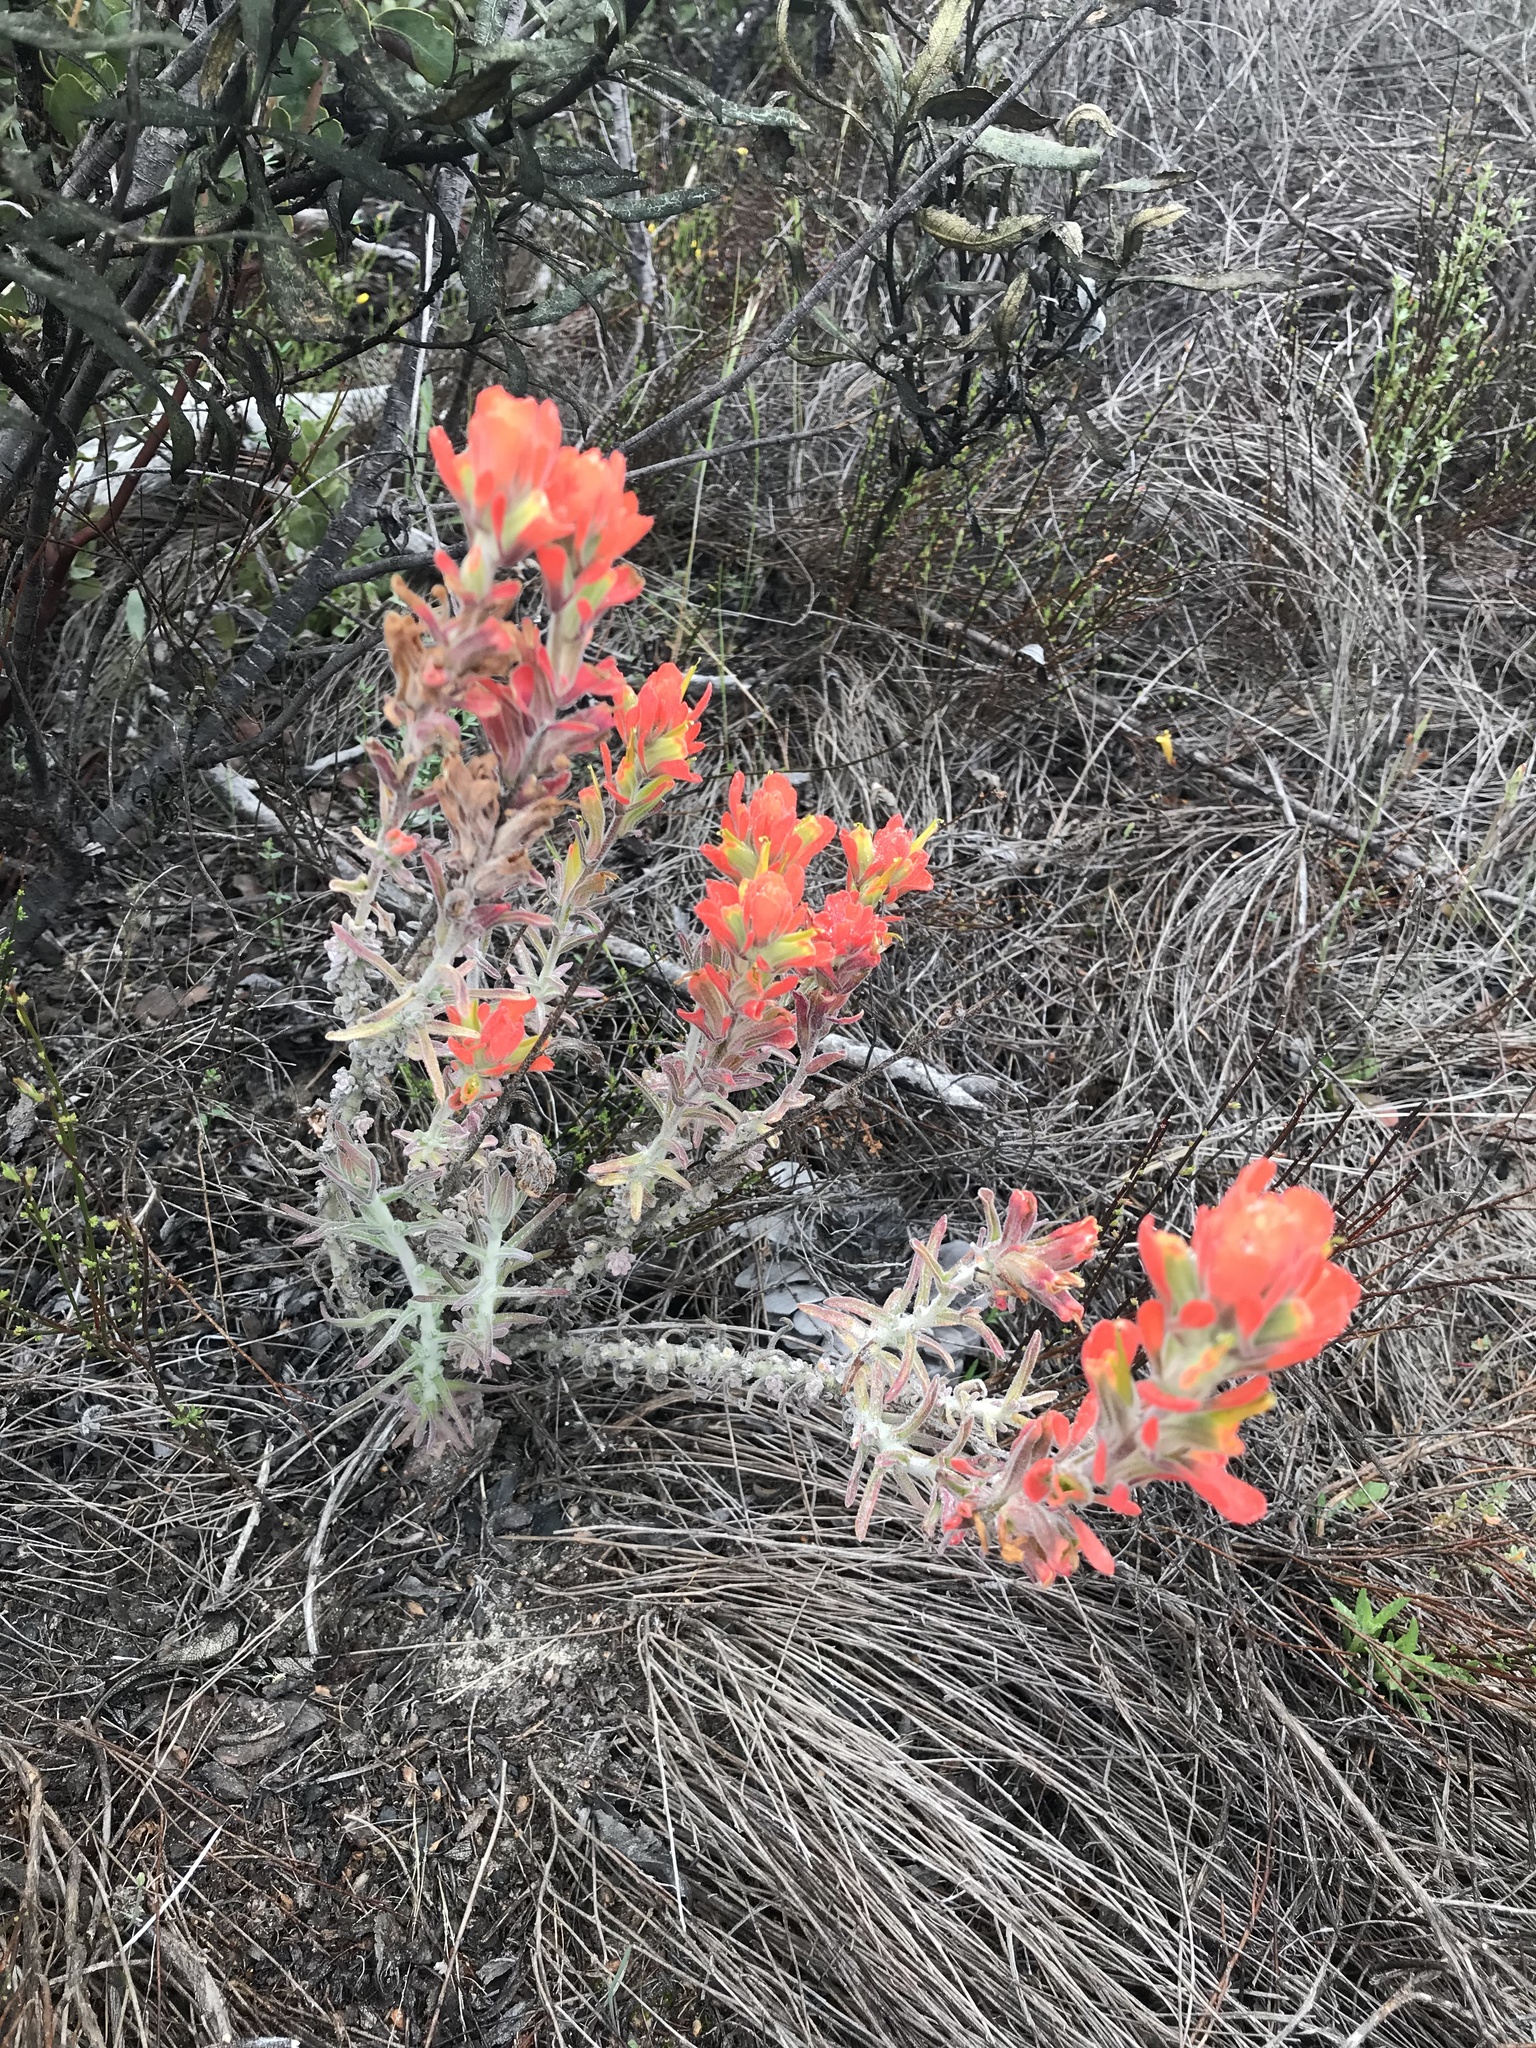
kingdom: Plantae
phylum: Tracheophyta
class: Magnoliopsida
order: Lamiales
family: Orobanchaceae
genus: Castilleja
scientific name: Castilleja foliolosa
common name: Woolly indian paintbrush
